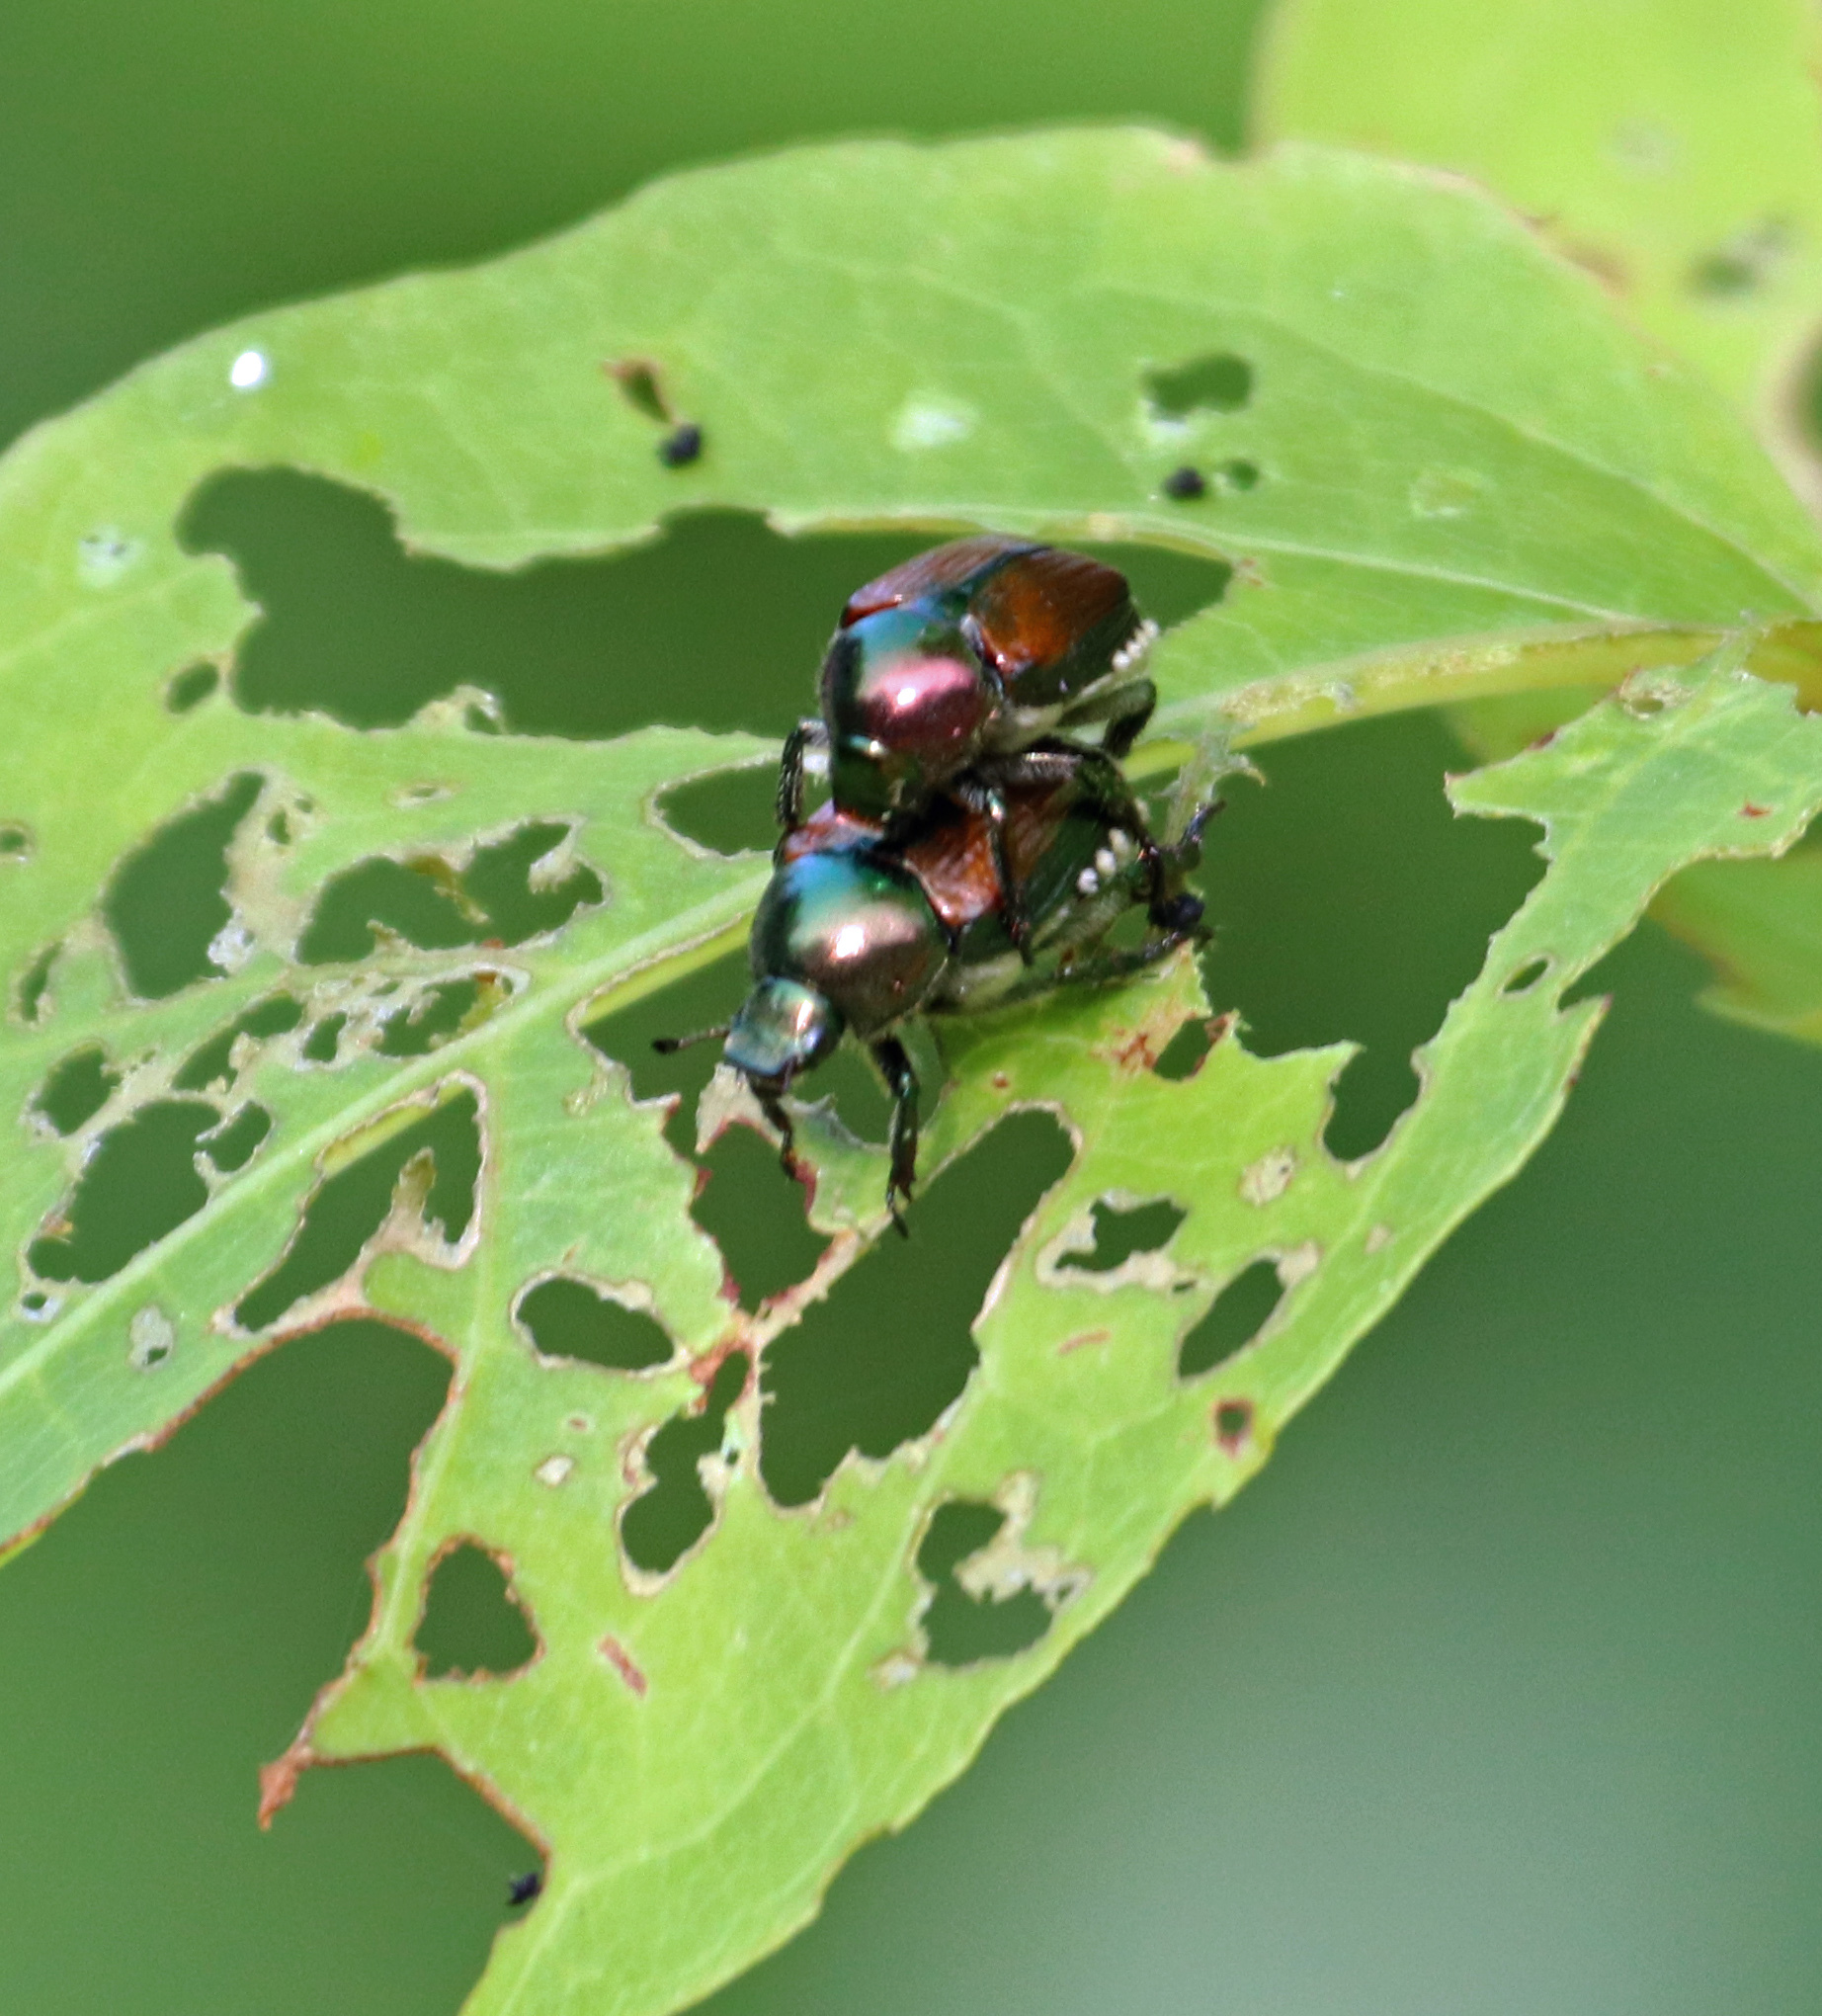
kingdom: Animalia
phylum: Arthropoda
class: Insecta
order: Coleoptera
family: Scarabaeidae
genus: Popillia
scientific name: Popillia japonica
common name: Japanese beetle
